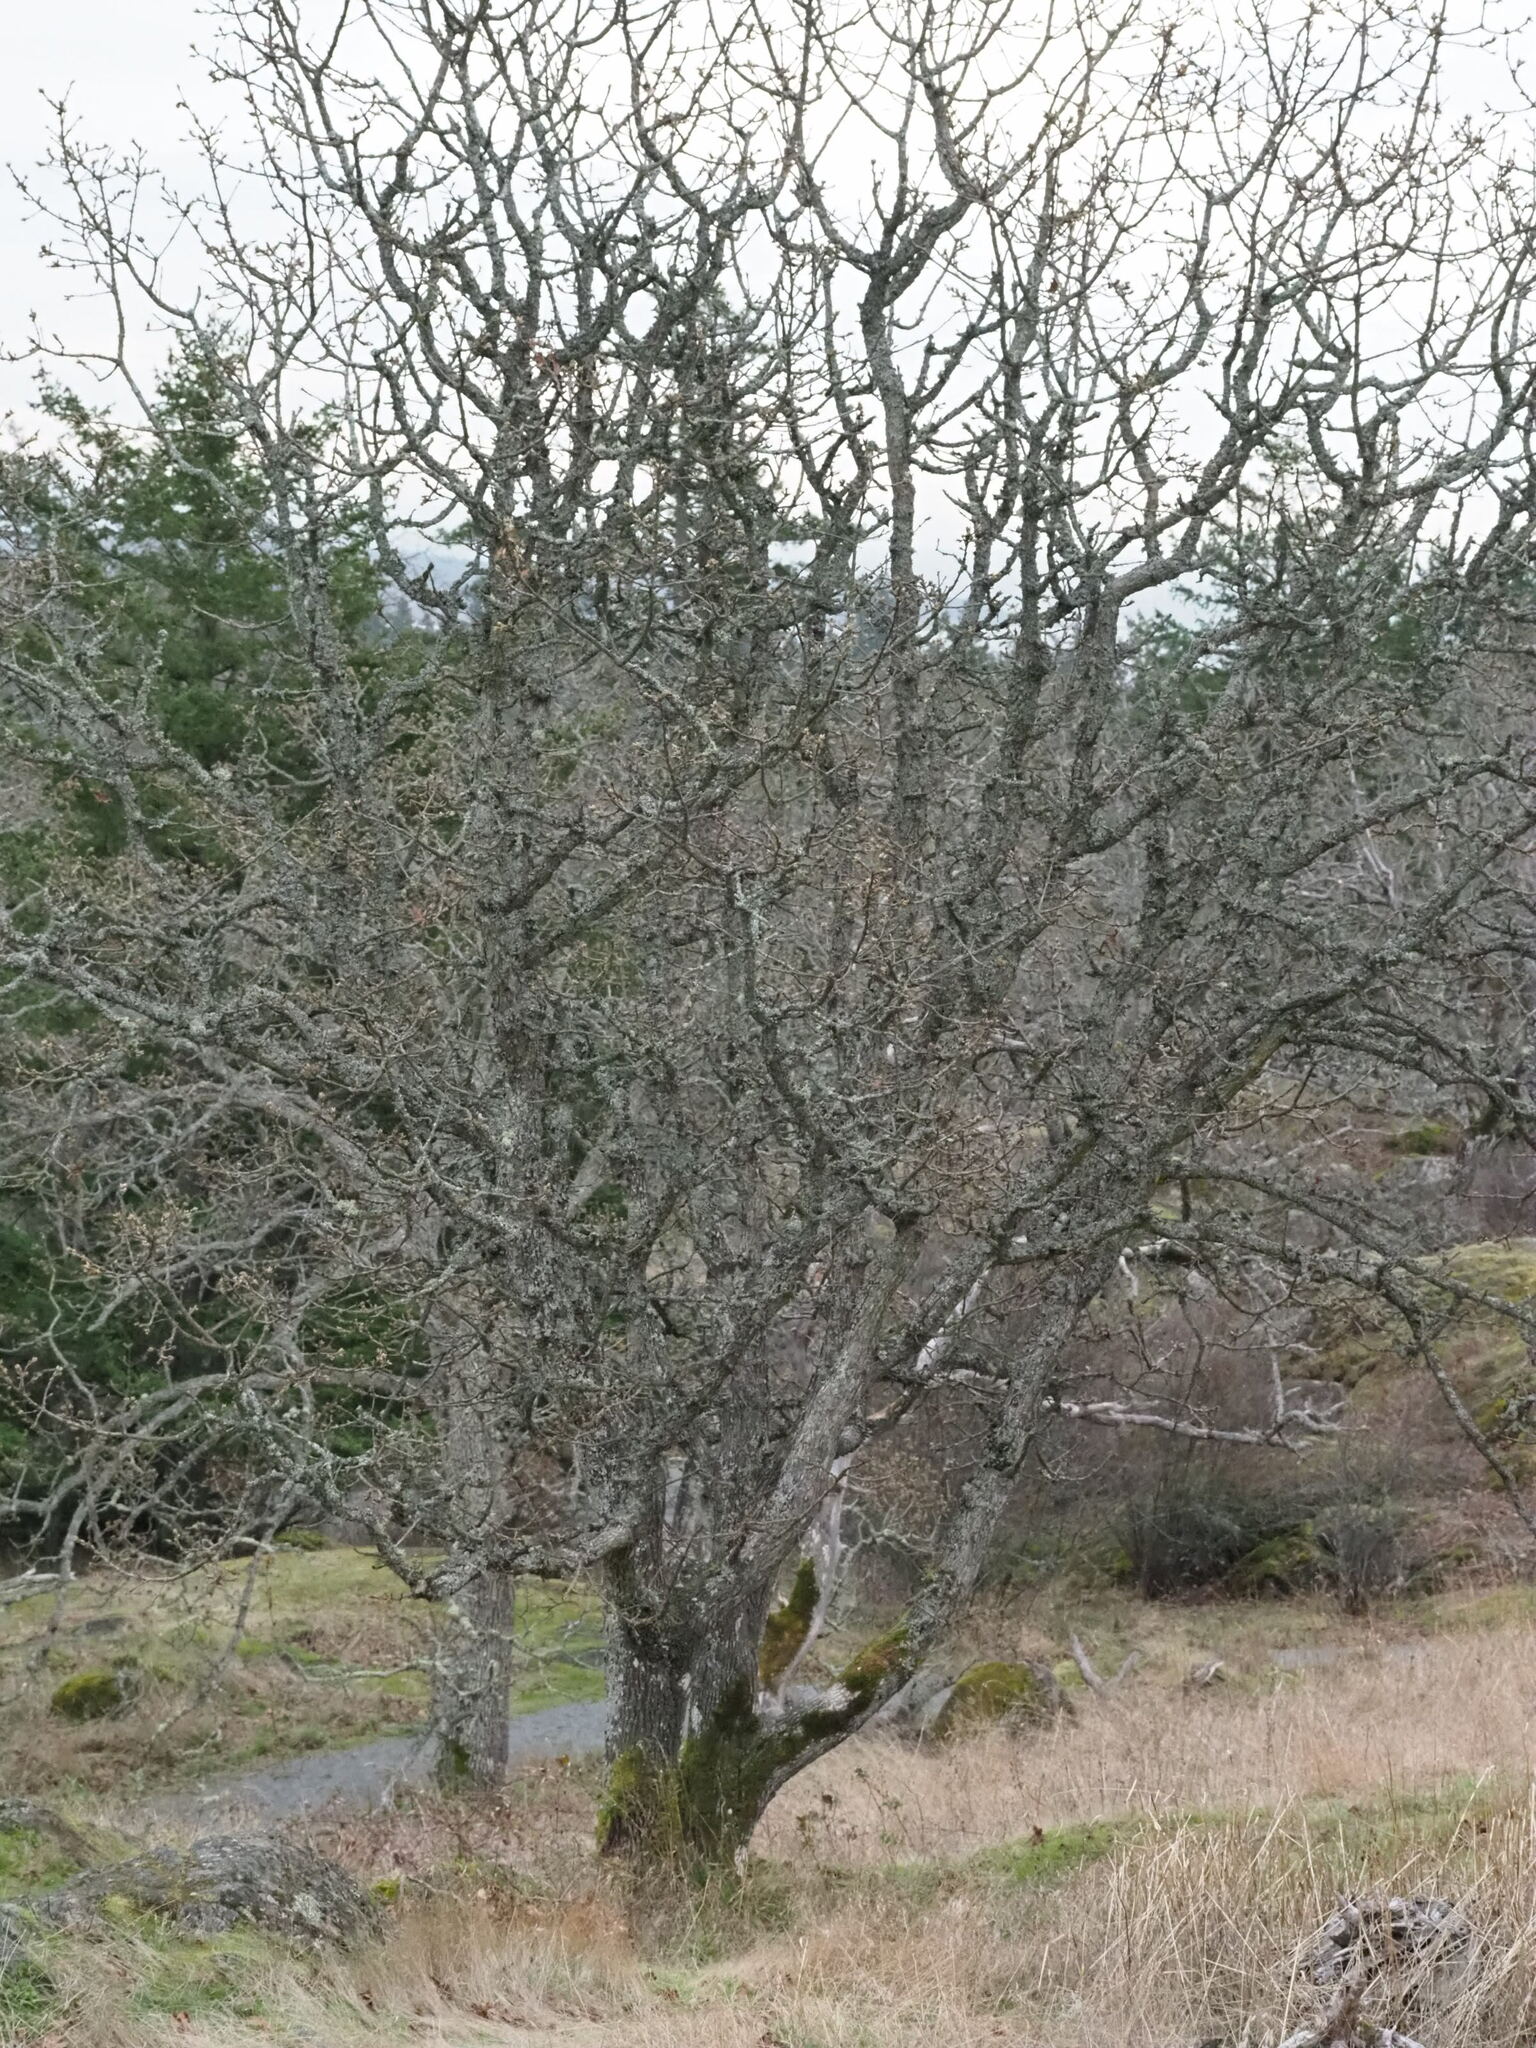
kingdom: Plantae
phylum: Tracheophyta
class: Magnoliopsida
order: Fagales
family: Fagaceae
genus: Quercus
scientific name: Quercus garryana
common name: Garry oak
